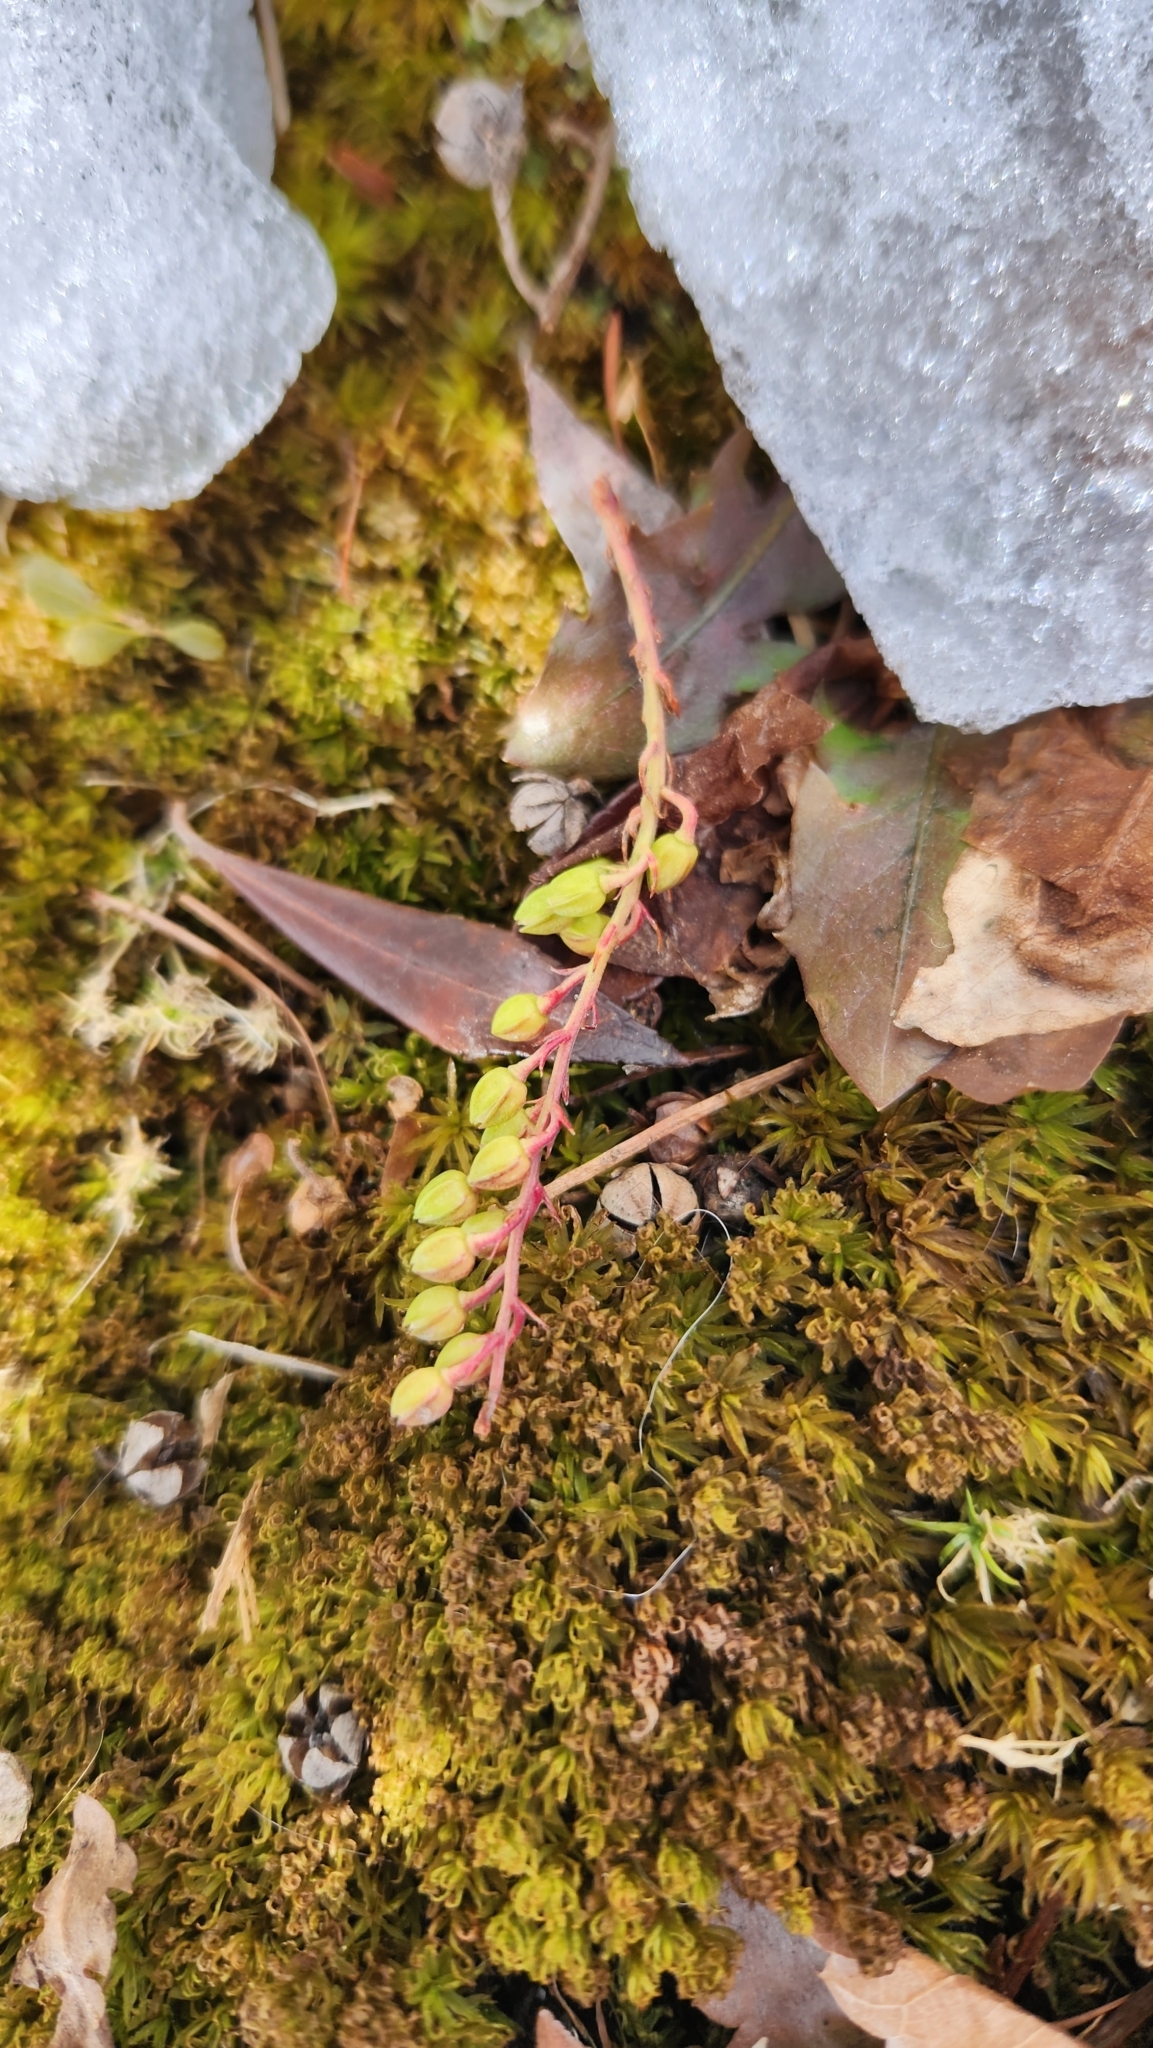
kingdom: Plantae
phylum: Tracheophyta
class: Magnoliopsida
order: Ericales
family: Ericaceae
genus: Pieris
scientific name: Pieris japonica
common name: Japanese pieris
